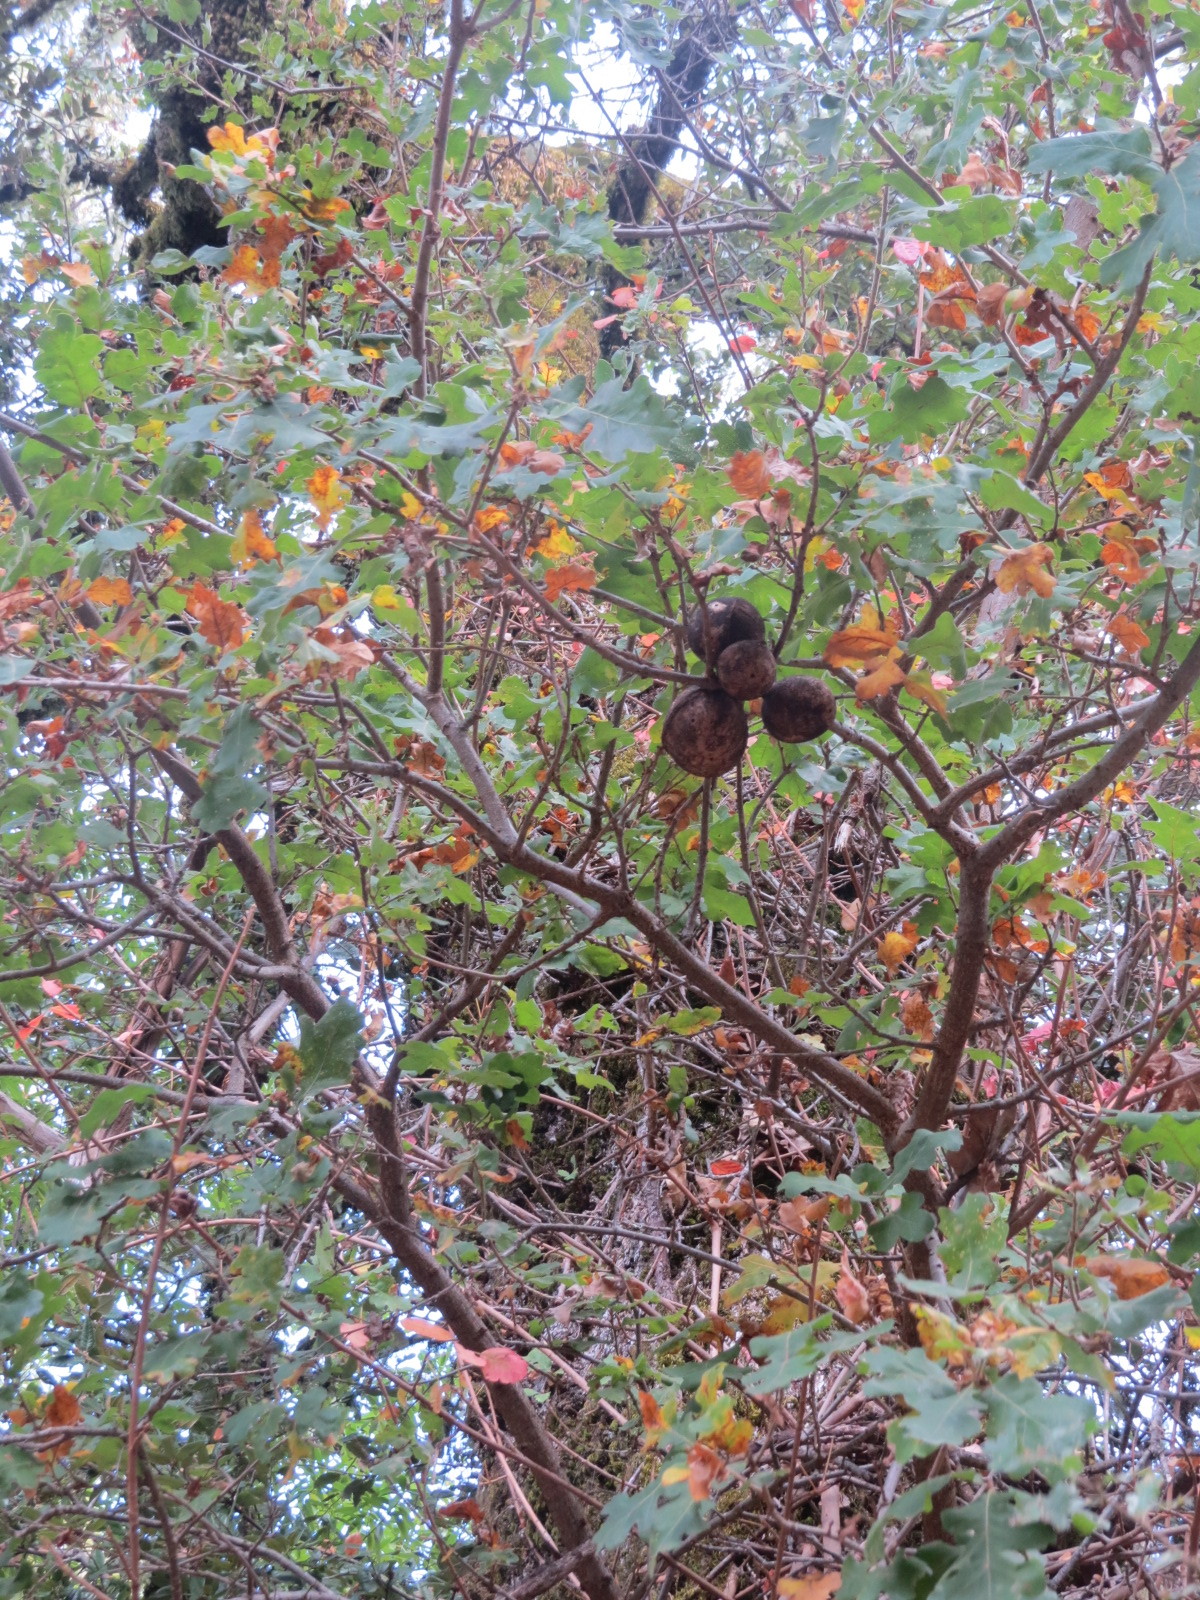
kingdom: Animalia
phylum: Arthropoda
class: Insecta
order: Hymenoptera
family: Cynipidae
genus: Andricus
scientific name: Andricus quercuscalifornicus
